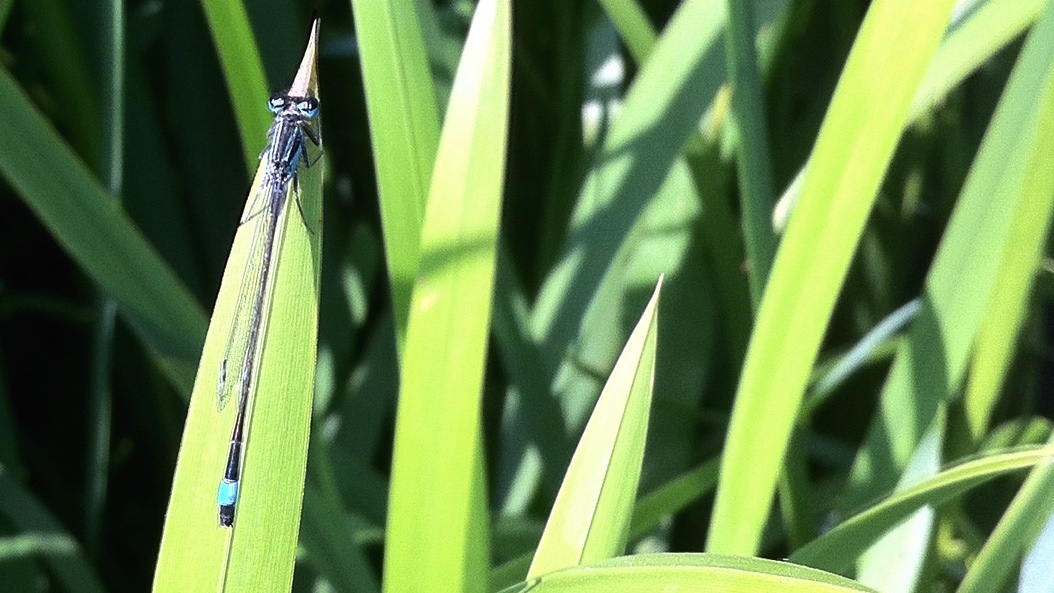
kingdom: Animalia
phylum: Arthropoda
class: Insecta
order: Odonata
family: Coenagrionidae
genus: Ischnura
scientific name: Ischnura elegans
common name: Blue-tailed damselfly
